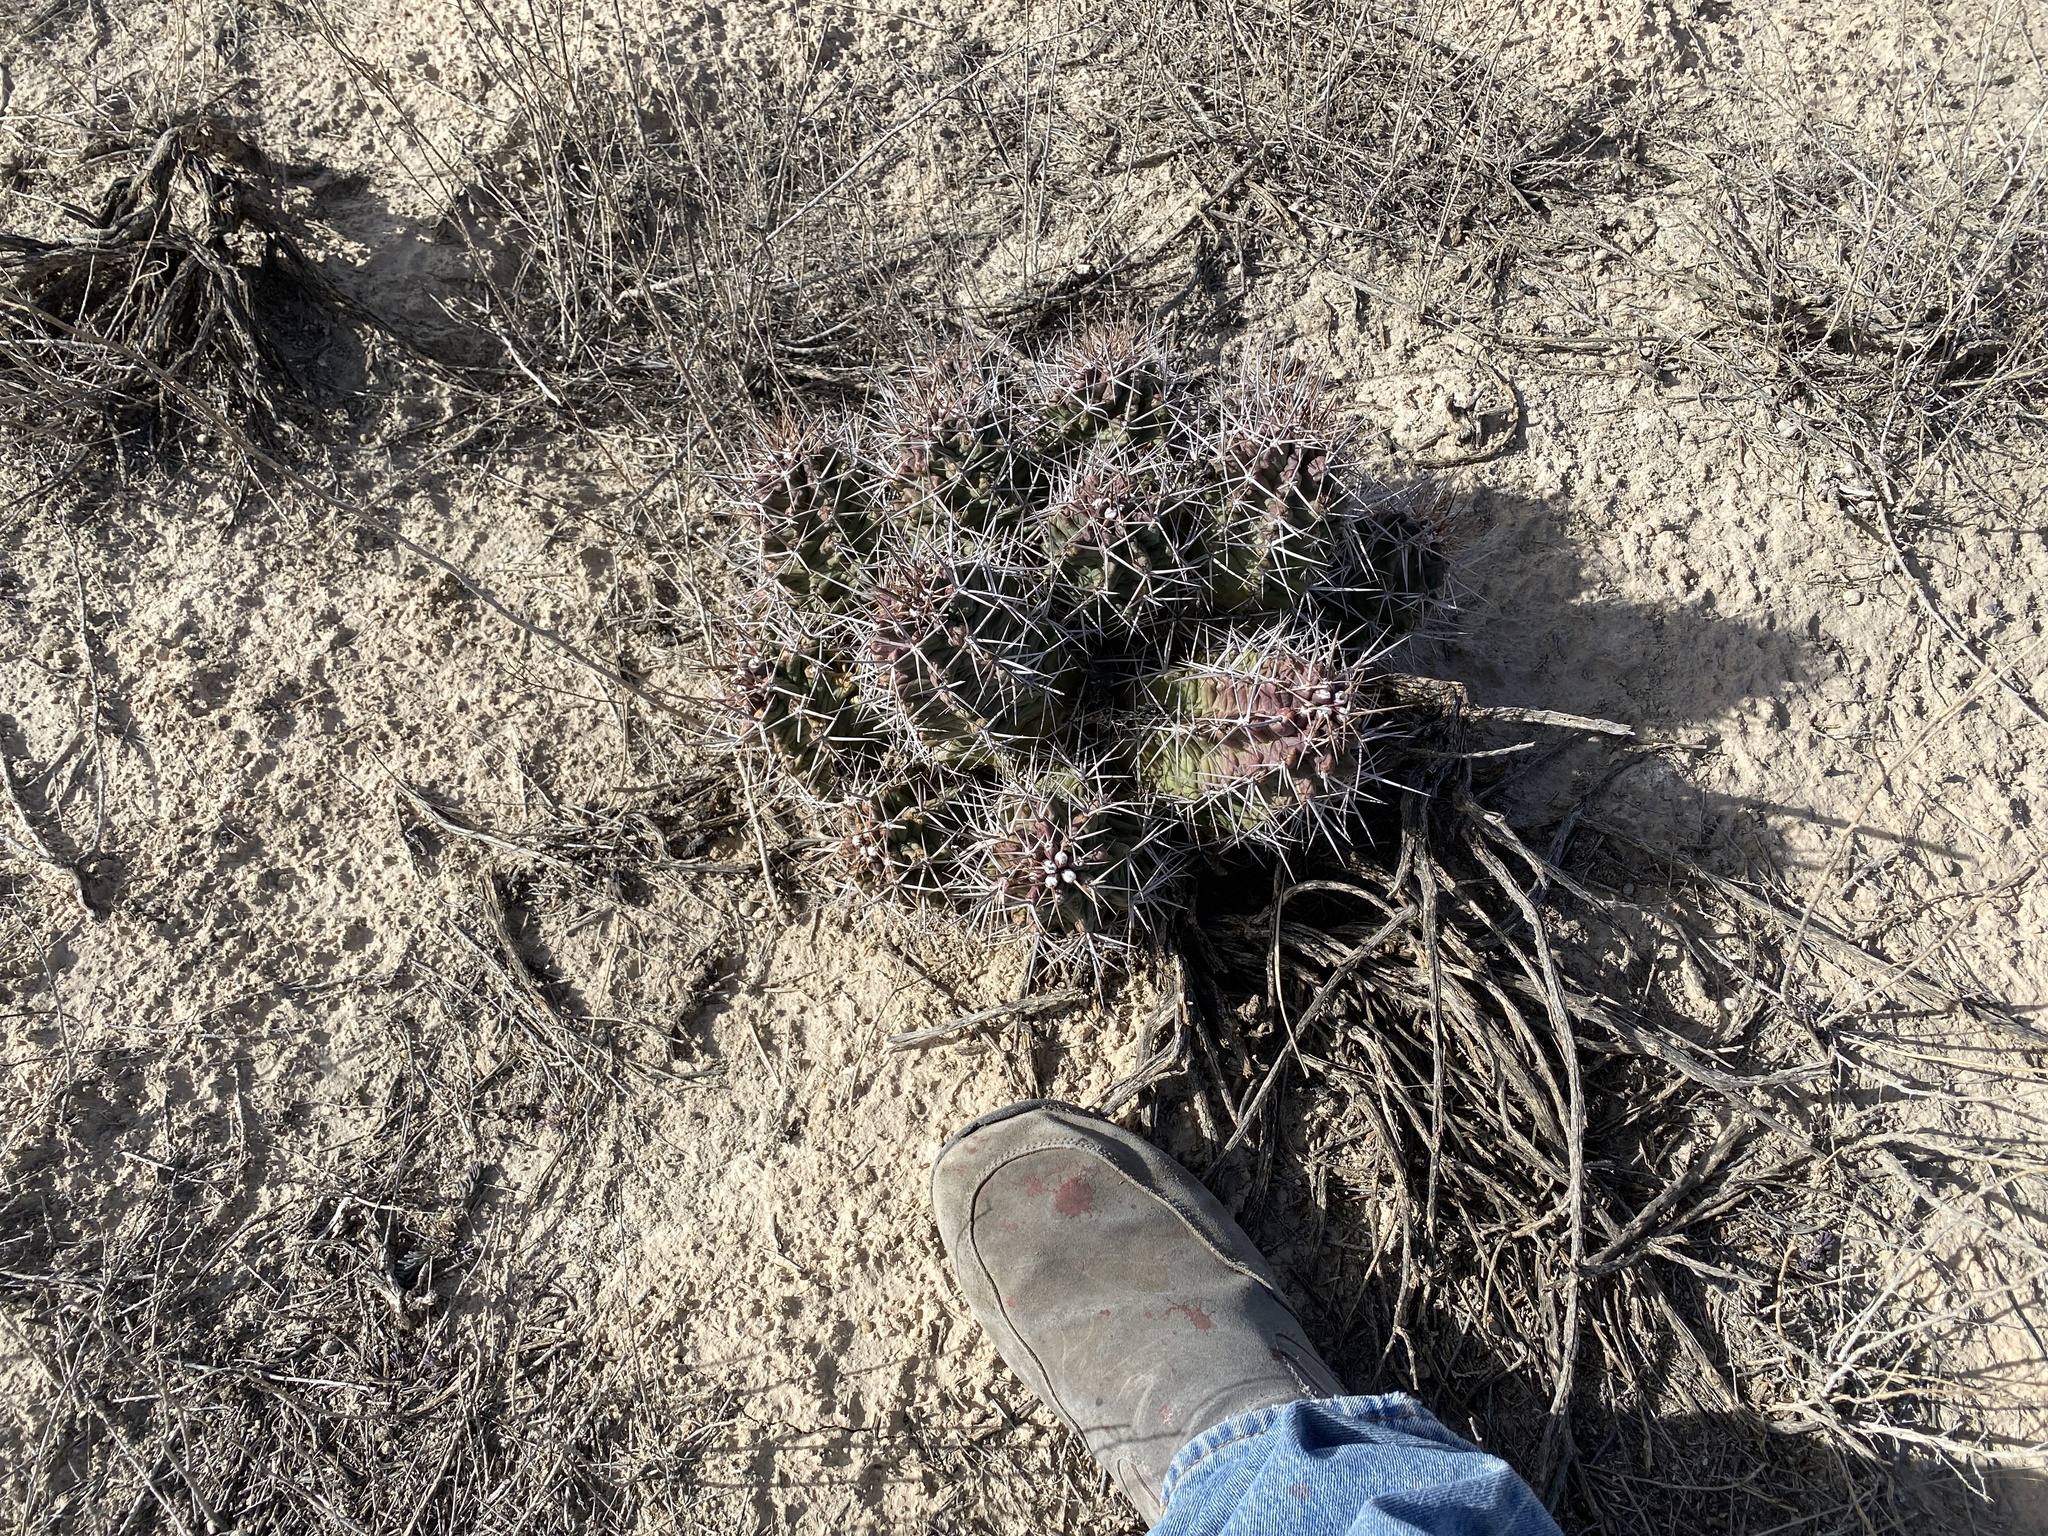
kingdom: Plantae
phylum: Tracheophyta
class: Magnoliopsida
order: Caryophyllales
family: Cactaceae
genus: Echinocereus
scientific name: Echinocereus triglochidiatus
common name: Claretcup hedgehog
